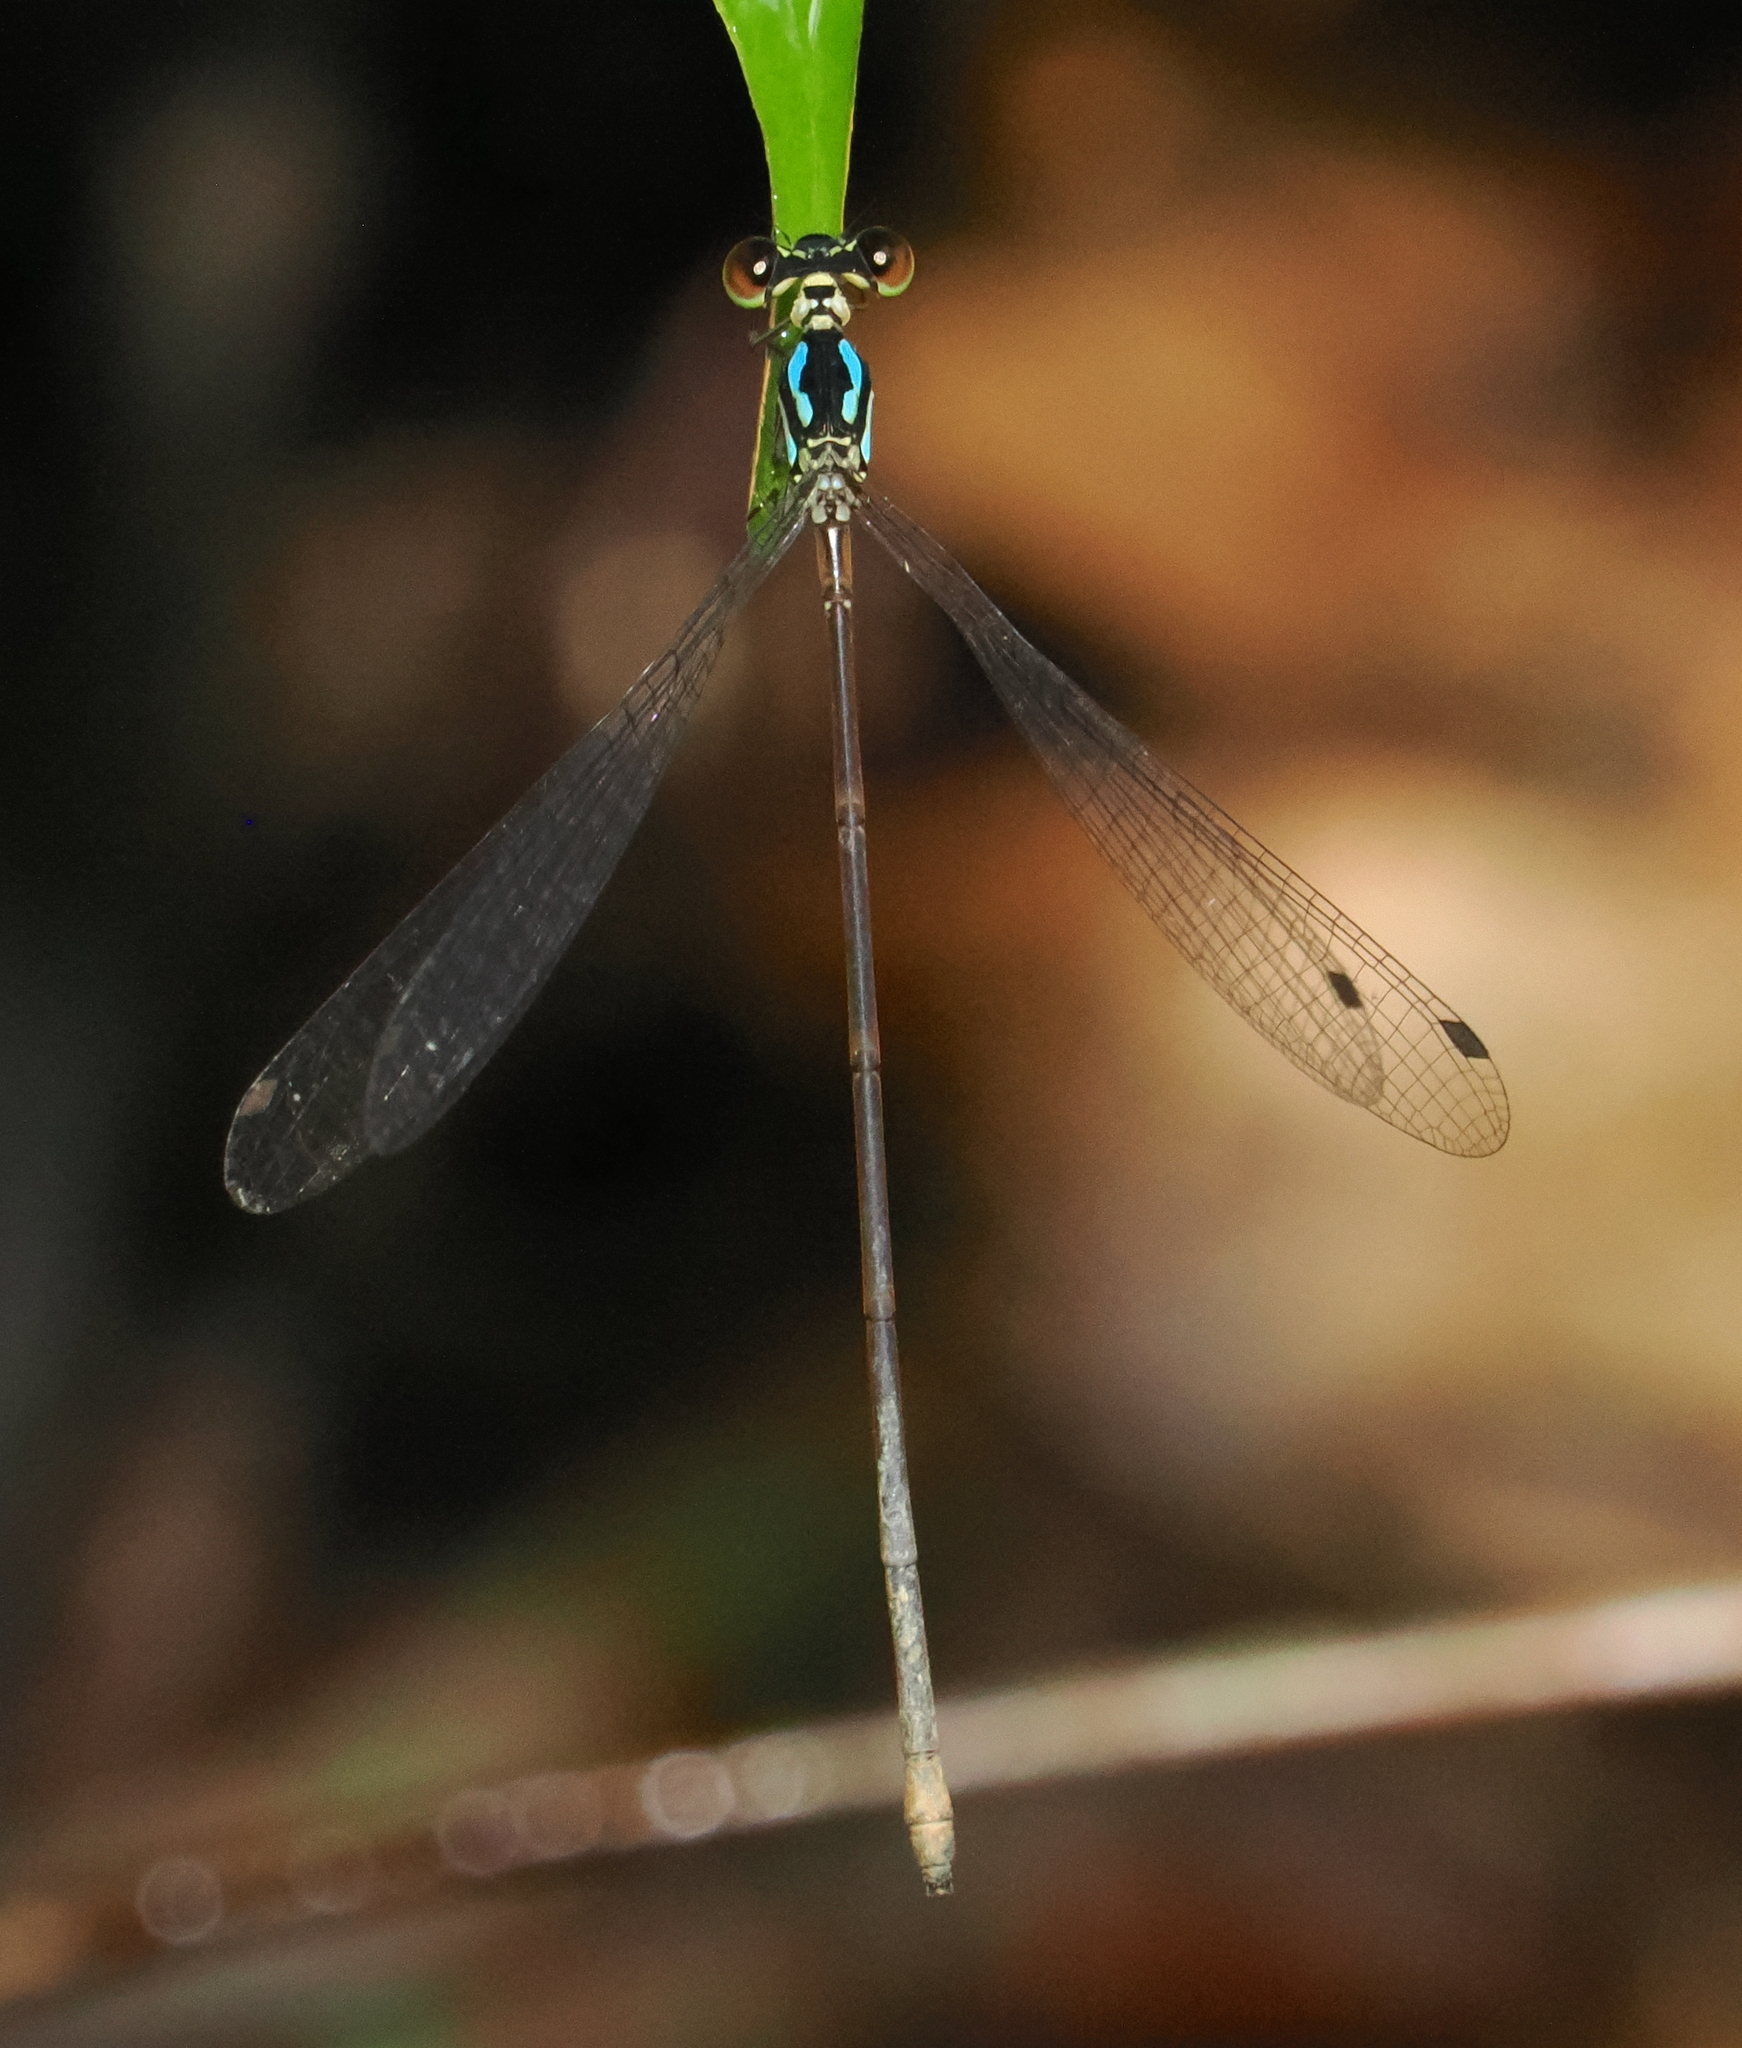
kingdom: Animalia
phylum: Arthropoda
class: Insecta
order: Odonata
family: Platycnemididae
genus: Coeliccia
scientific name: Coeliccia octogesima
